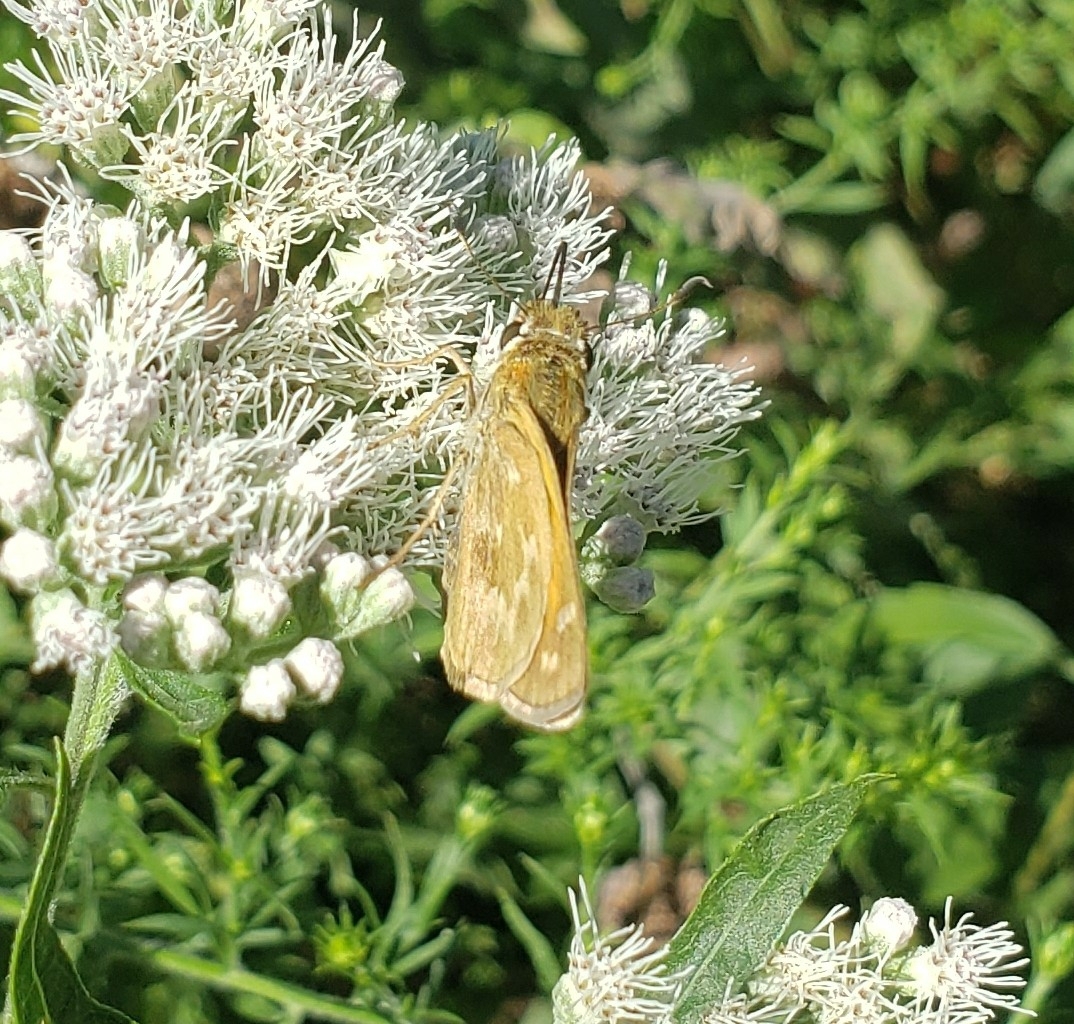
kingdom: Animalia
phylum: Arthropoda
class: Insecta
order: Lepidoptera
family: Hesperiidae
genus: Atalopedes
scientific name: Atalopedes
